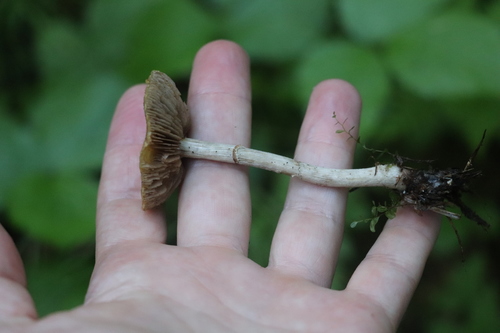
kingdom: Fungi
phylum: Basidiomycota
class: Agaricomycetes
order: Agaricales
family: Strophariaceae
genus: Agrocybe
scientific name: Agrocybe praecox
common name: Spring fieldcap
